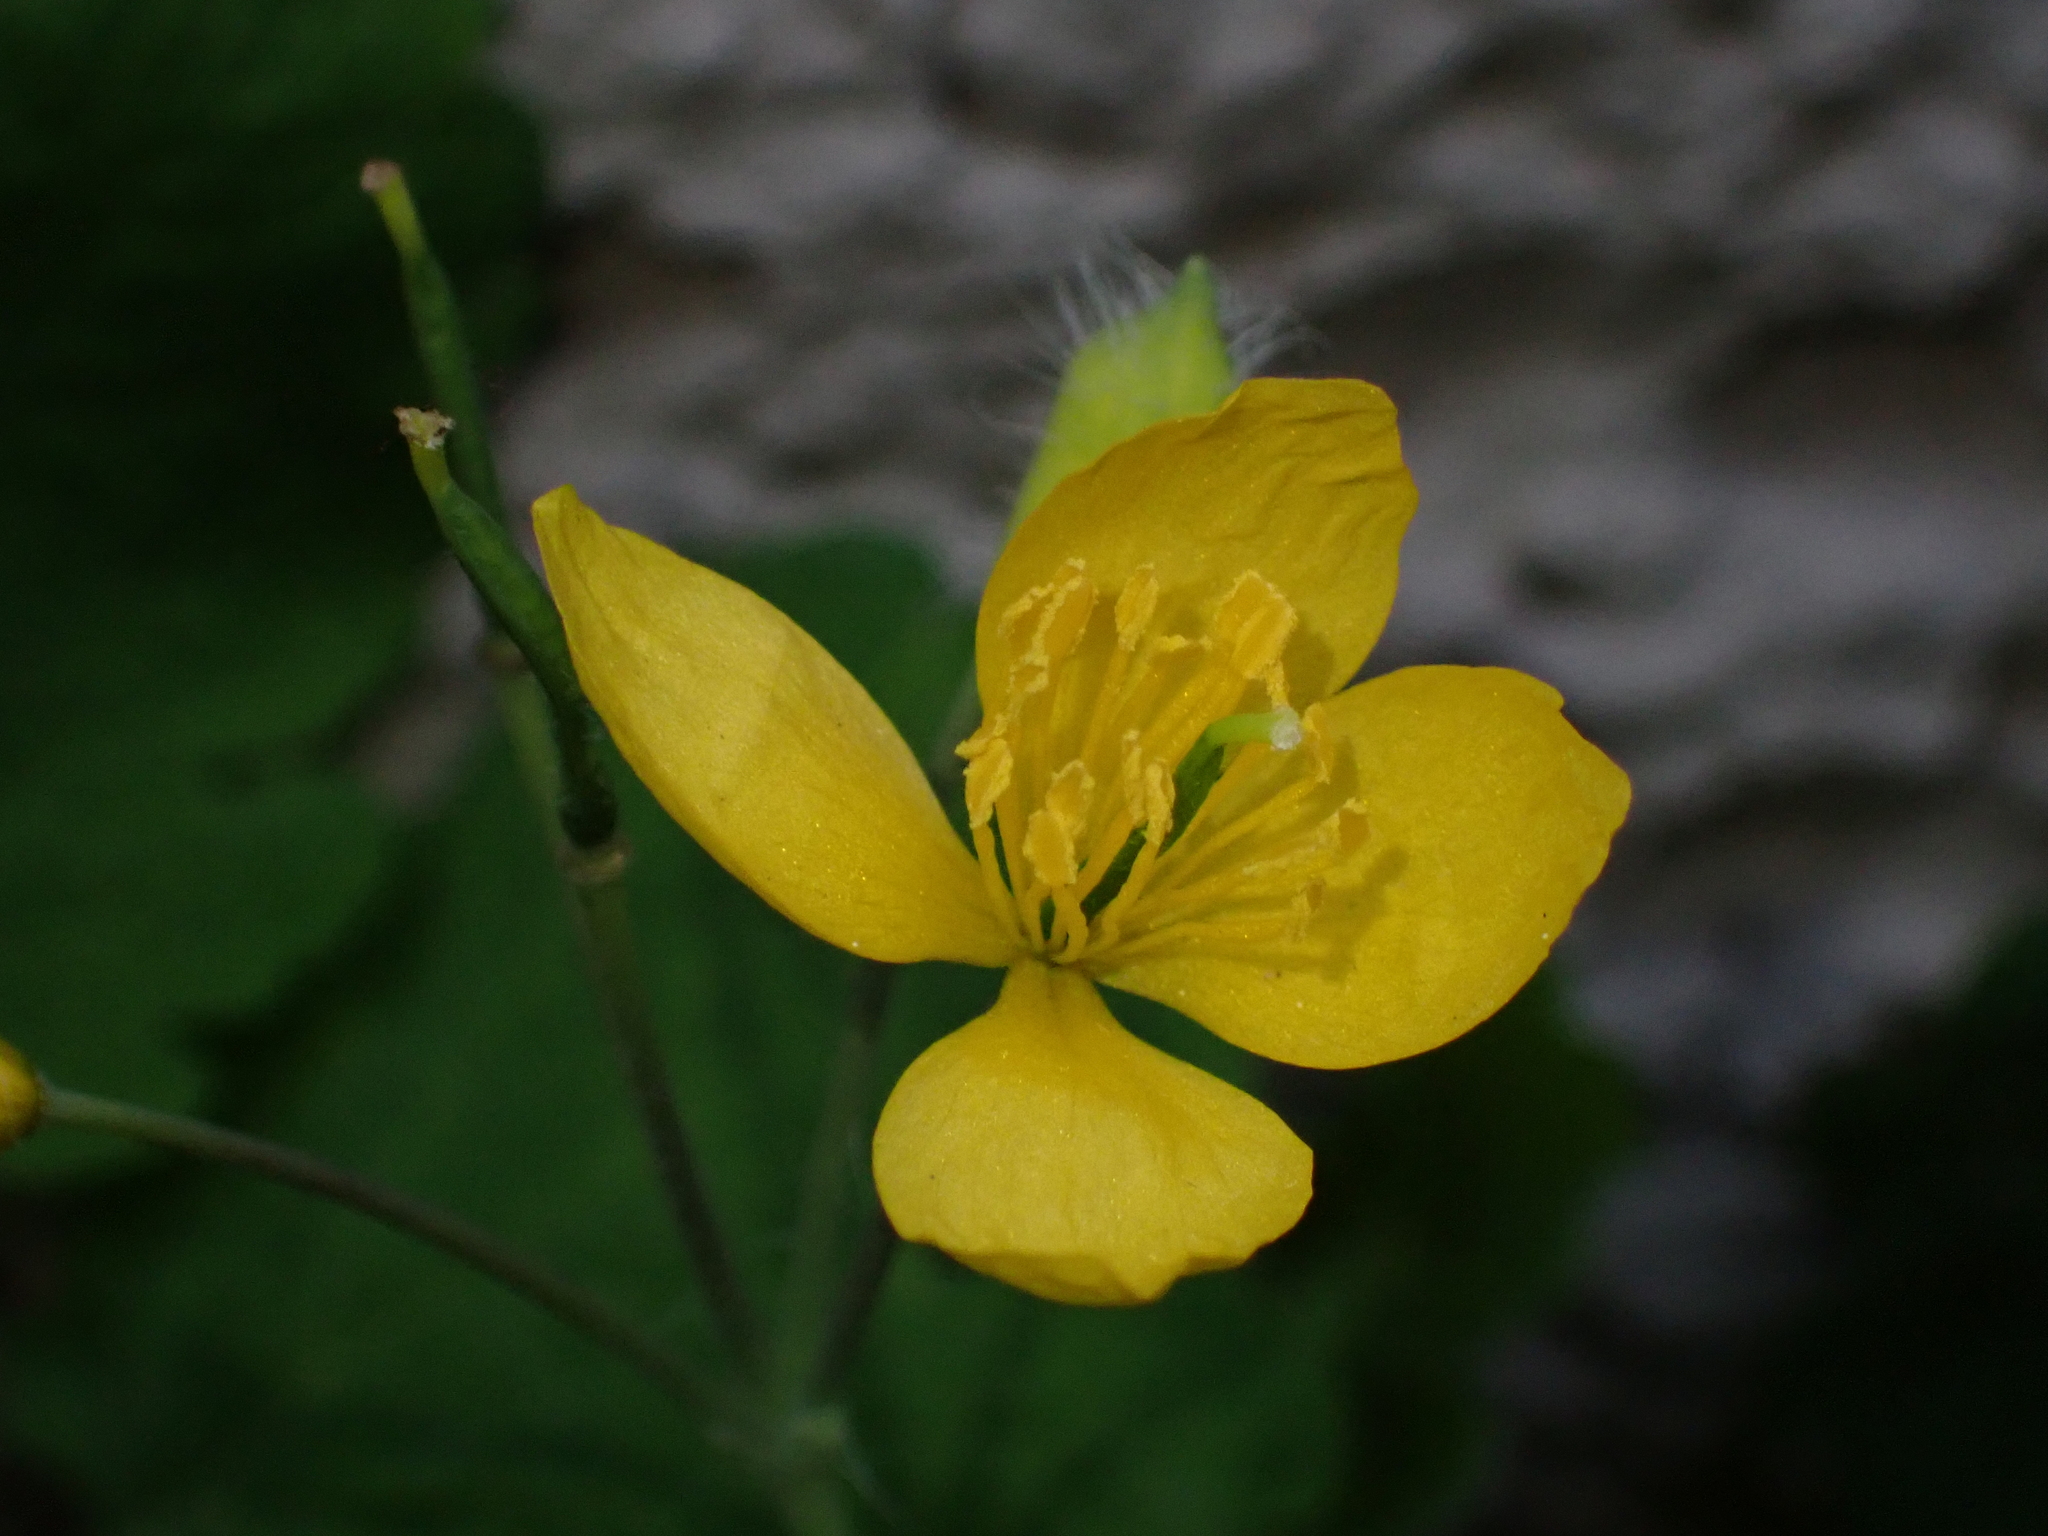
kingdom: Plantae
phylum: Tracheophyta
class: Magnoliopsida
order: Ranunculales
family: Papaveraceae
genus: Chelidonium
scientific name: Chelidonium majus
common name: Greater celandine
